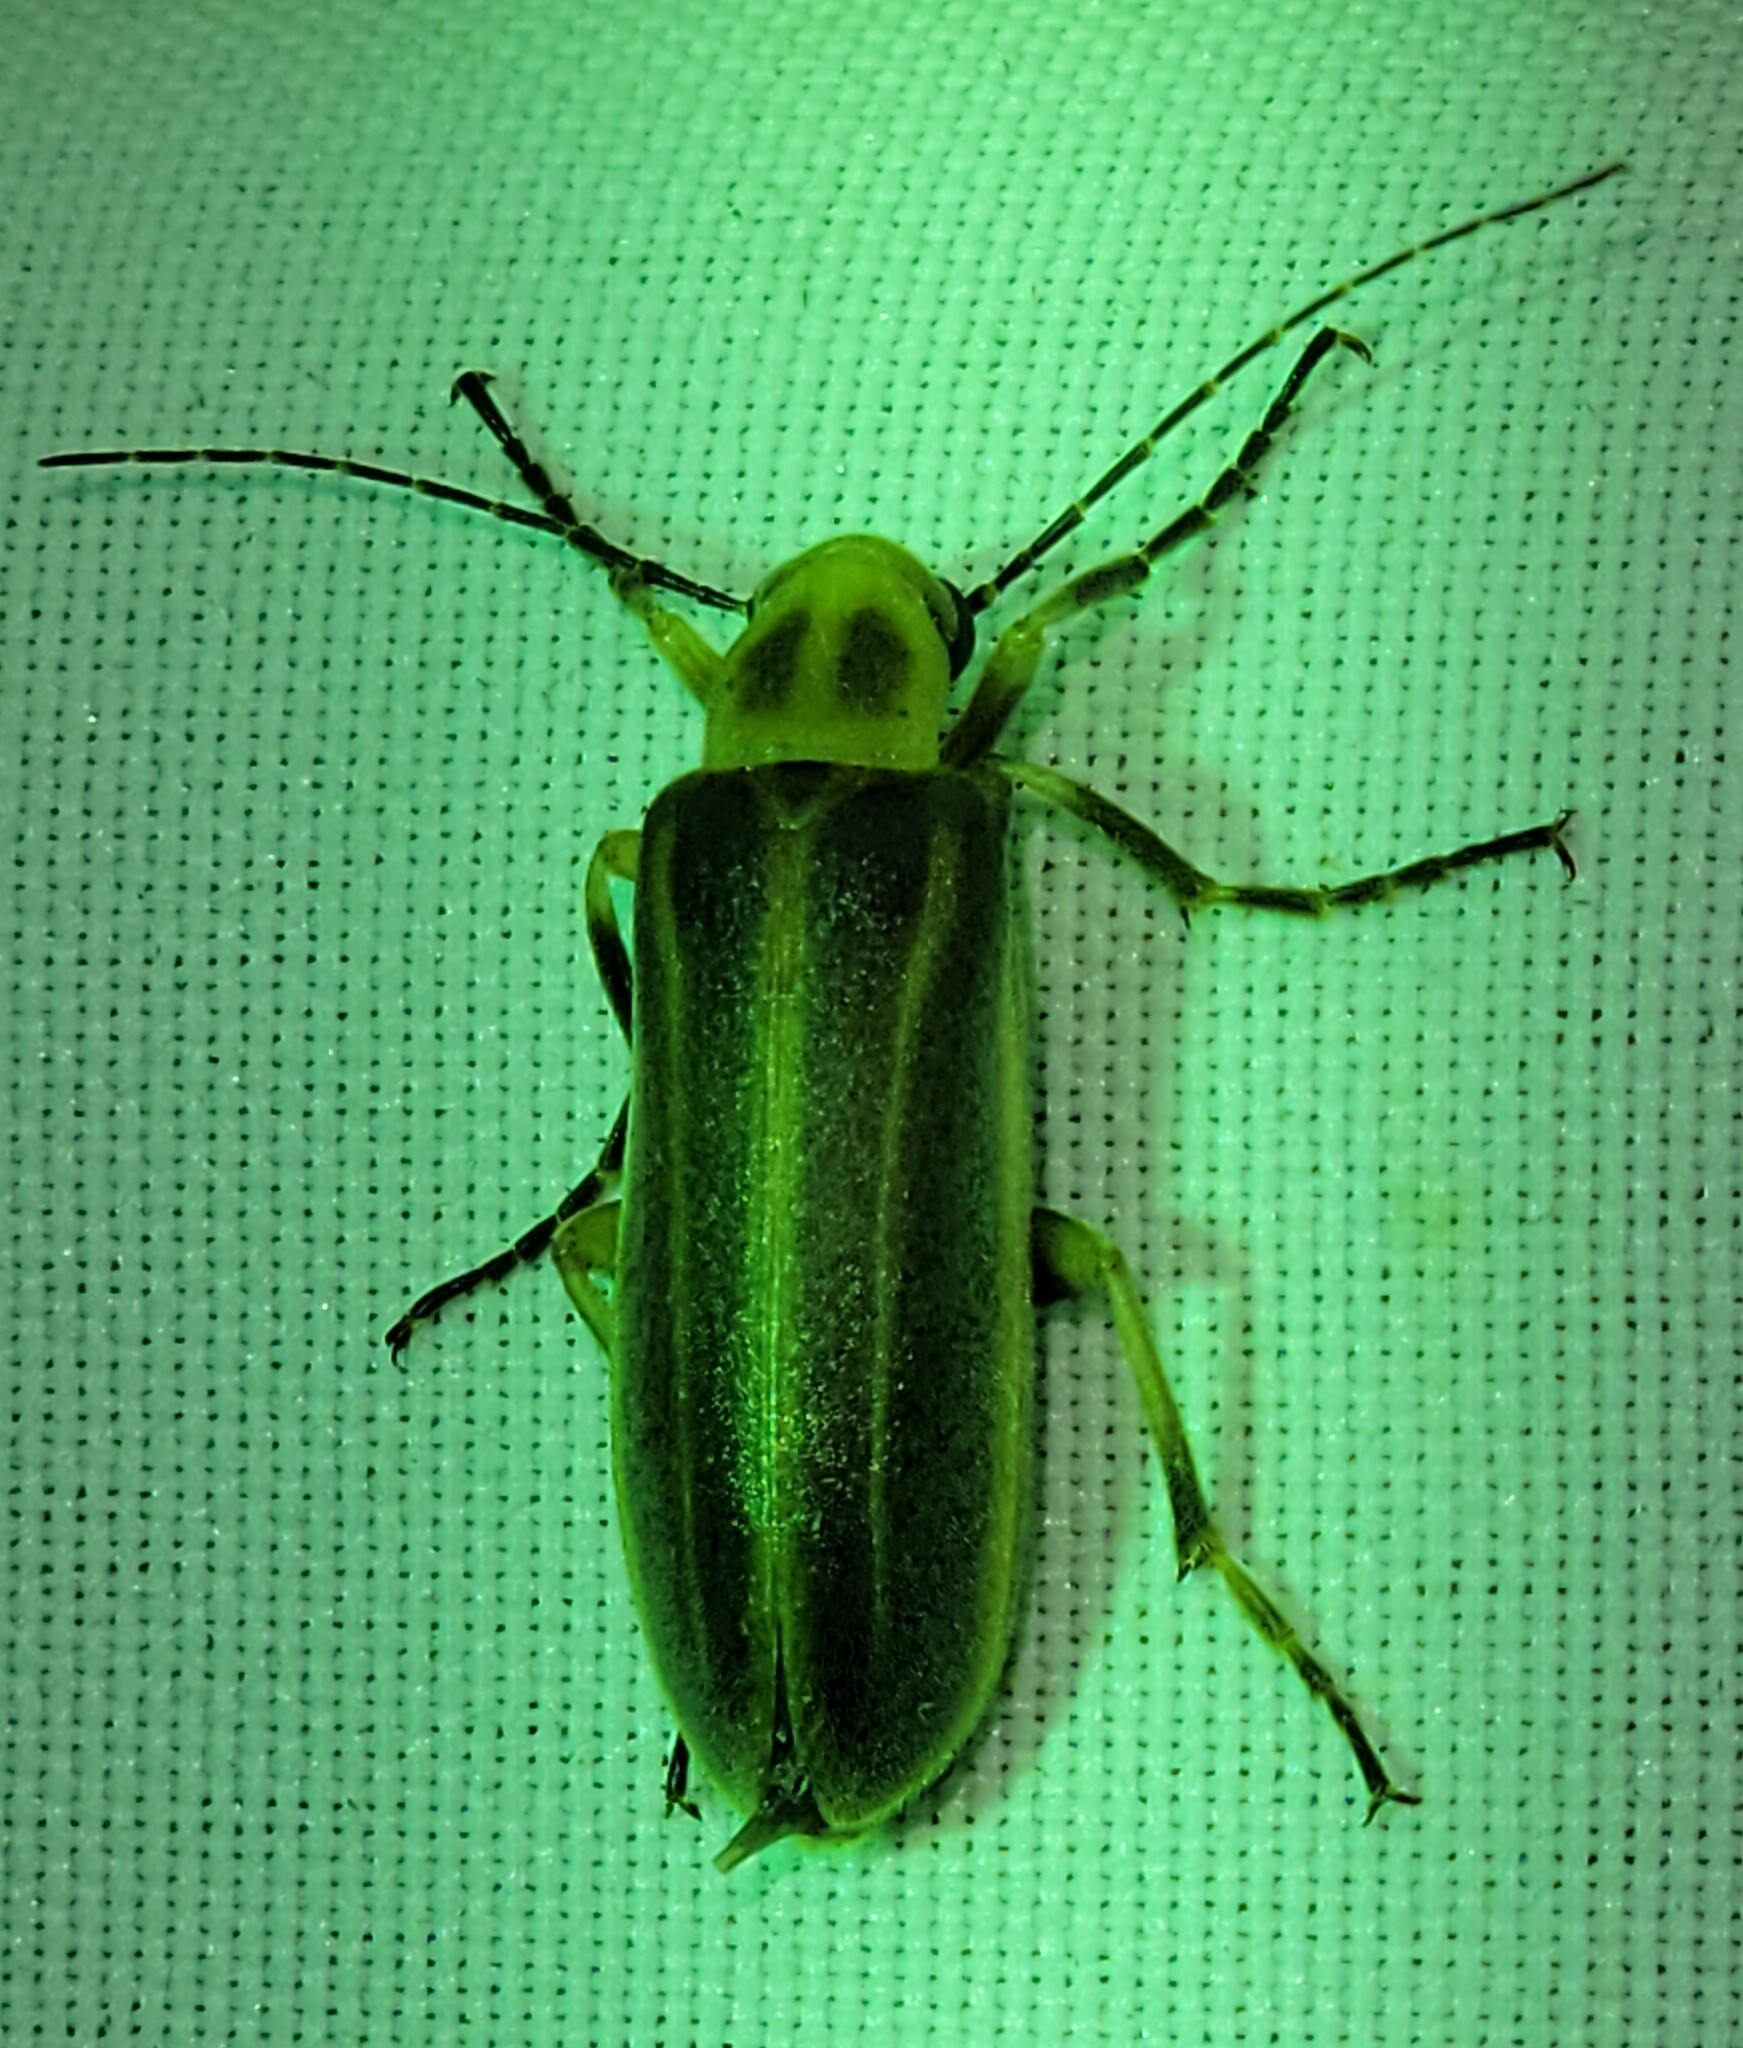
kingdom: Animalia
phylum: Arthropoda
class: Insecta
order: Coleoptera
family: Meloidae
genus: Pseudozonitis
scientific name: Pseudozonitis labialis
